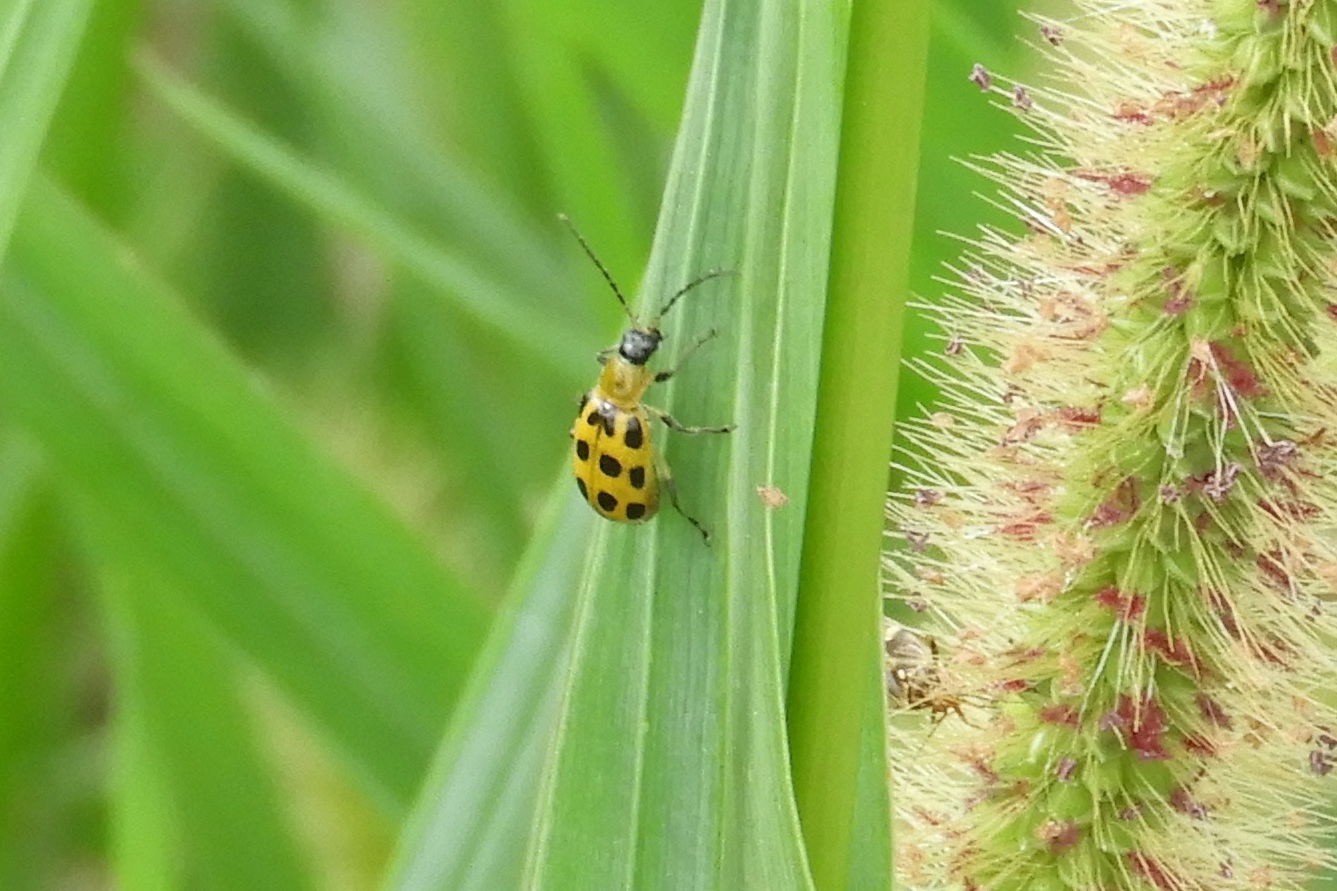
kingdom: Animalia
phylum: Arthropoda
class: Insecta
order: Coleoptera
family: Chrysomelidae
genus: Diabrotica
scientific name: Diabrotica undecimpunctata
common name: Spotted cucumber beetle
